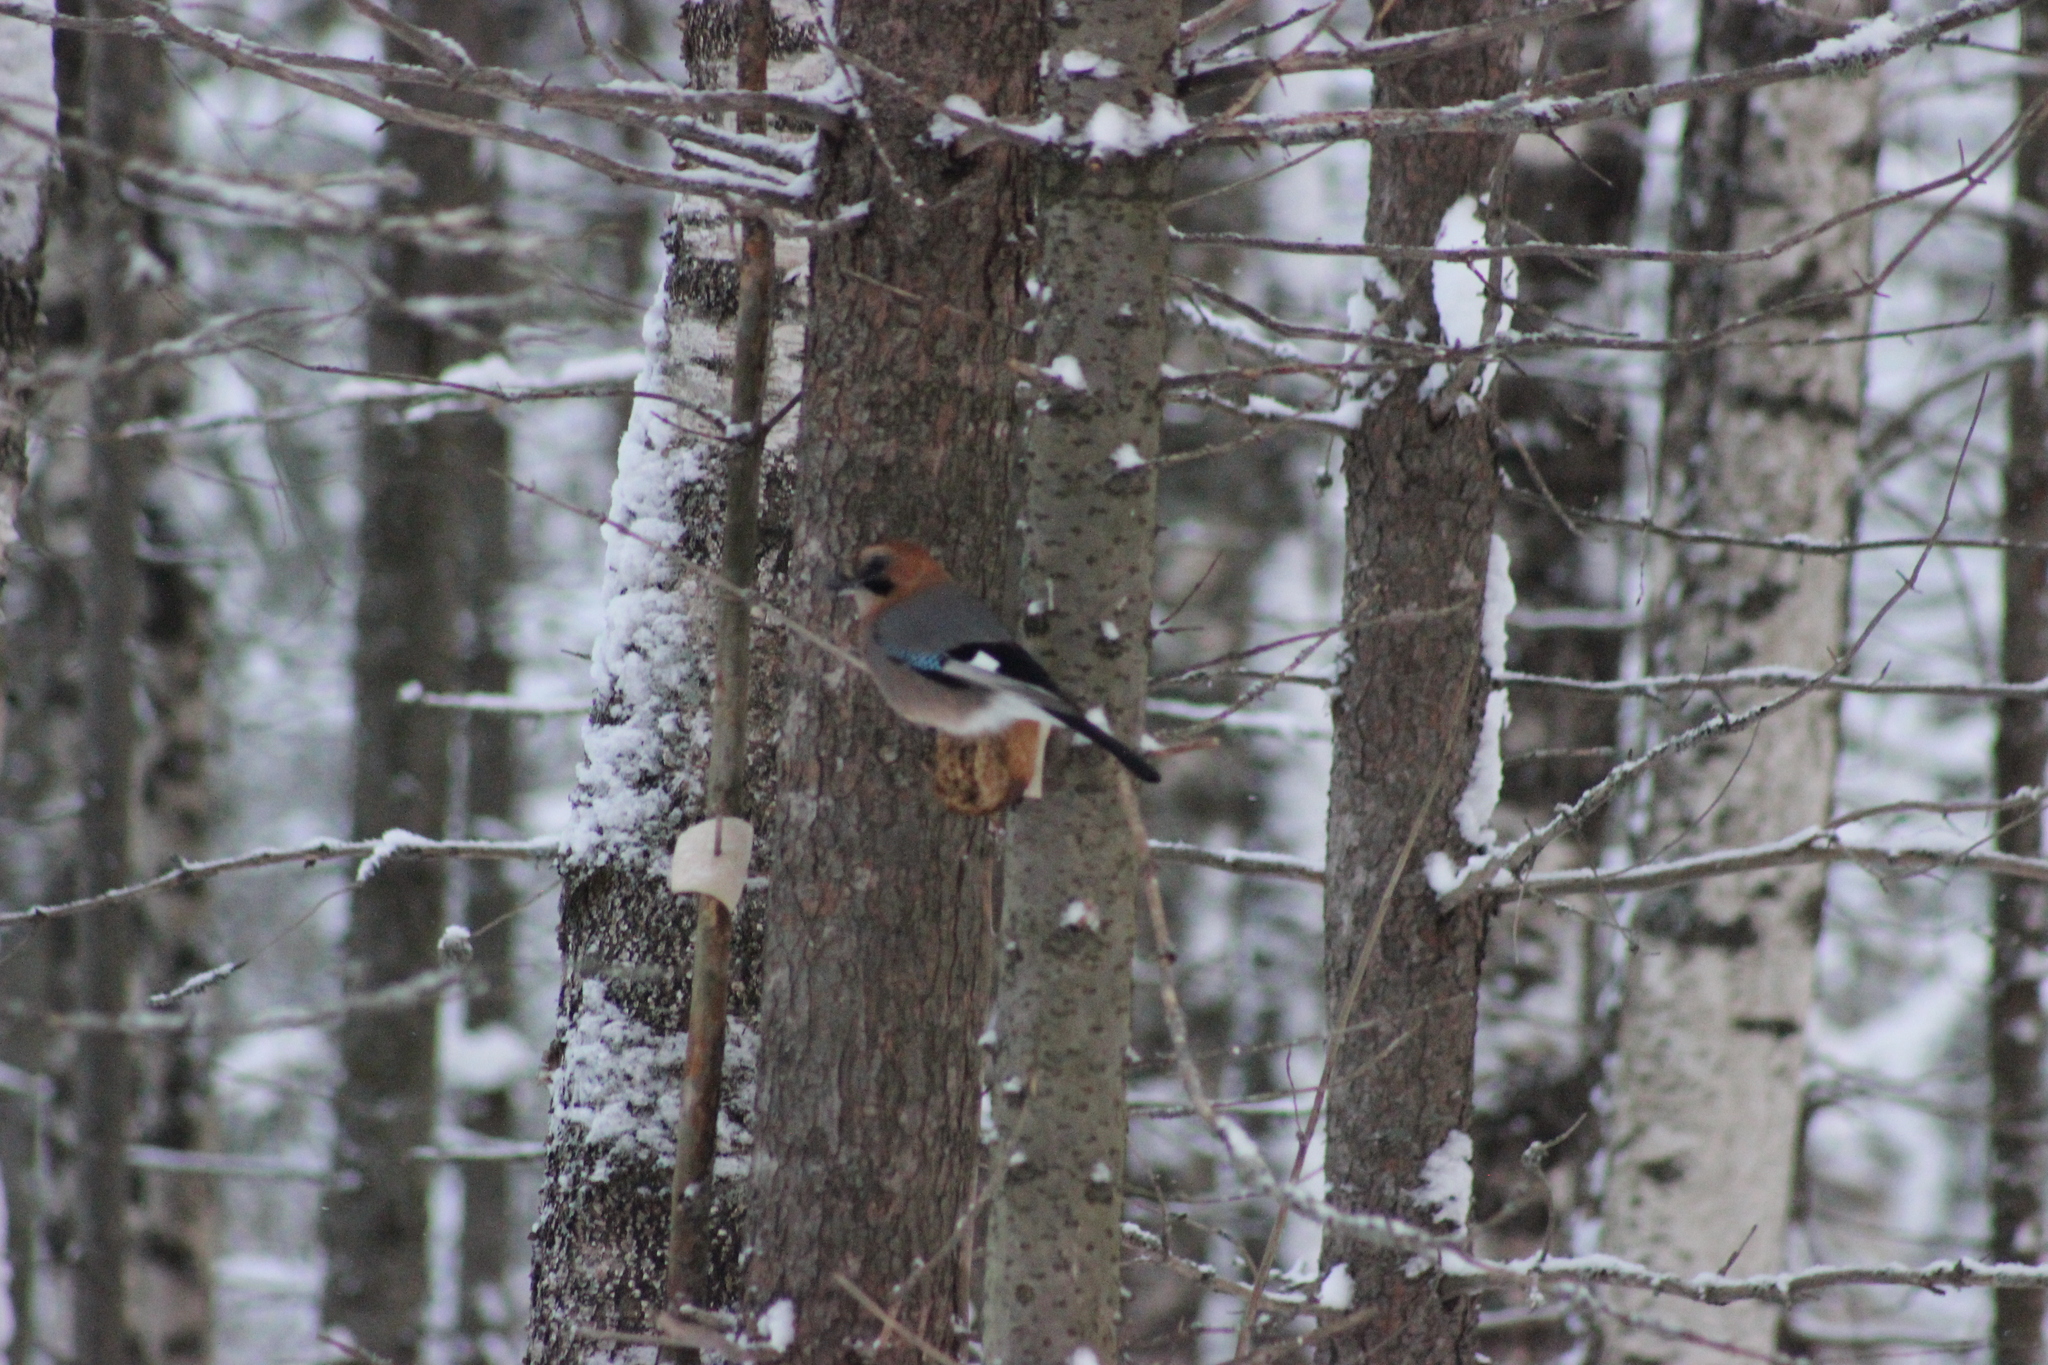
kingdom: Animalia
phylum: Chordata
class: Aves
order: Passeriformes
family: Corvidae
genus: Garrulus
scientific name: Garrulus glandarius
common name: Eurasian jay
